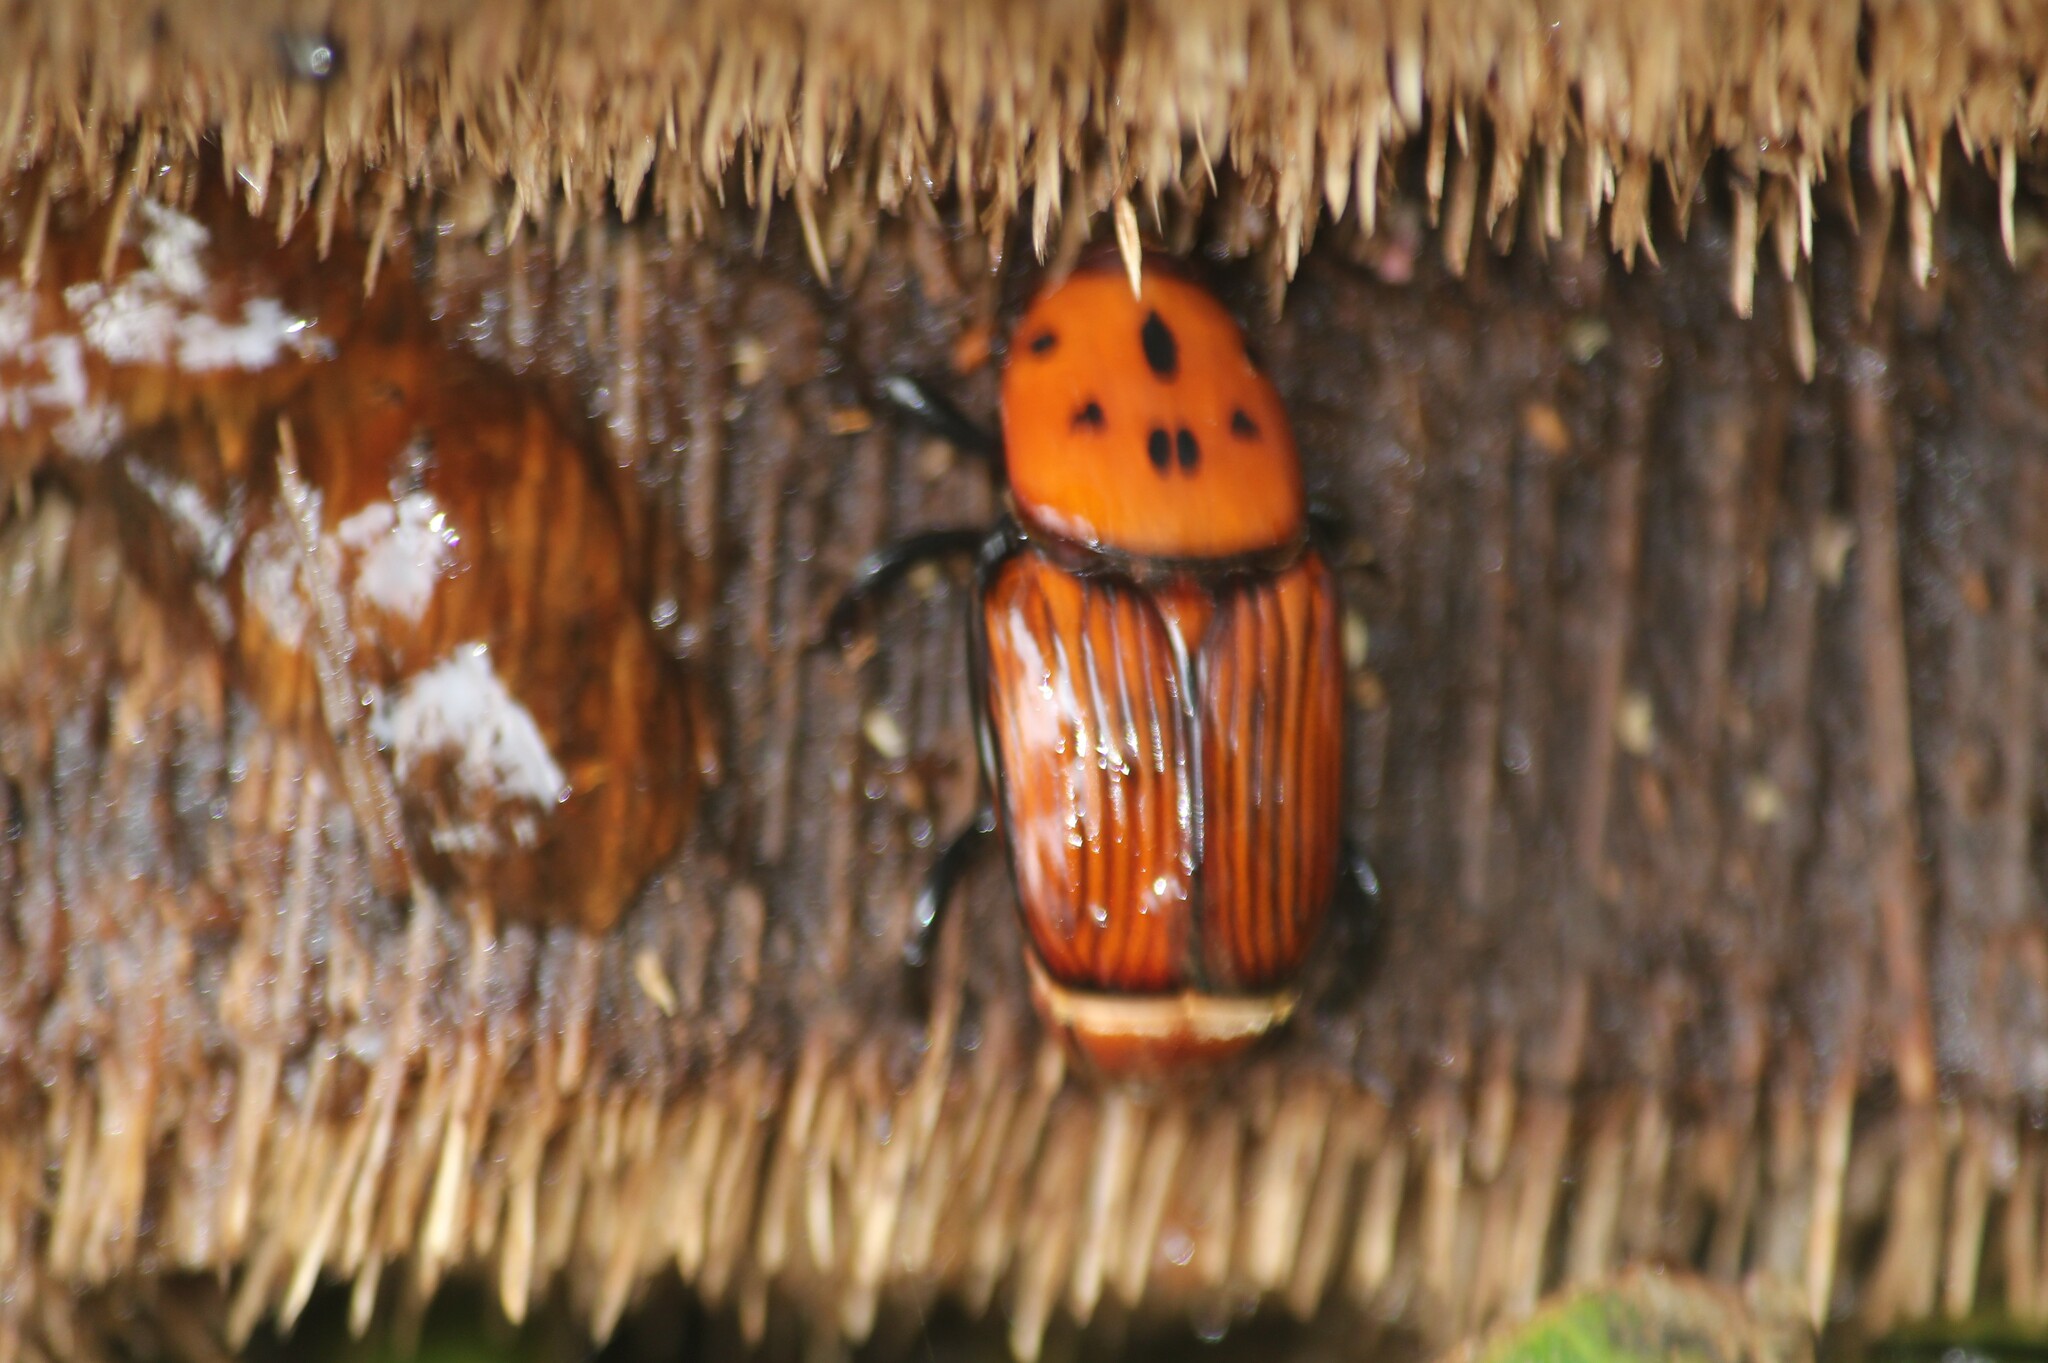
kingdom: Animalia
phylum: Arthropoda
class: Insecta
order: Coleoptera
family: Dryophthoridae
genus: Rhynchophorus
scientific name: Rhynchophorus ferrugineus
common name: Red palm weevil
